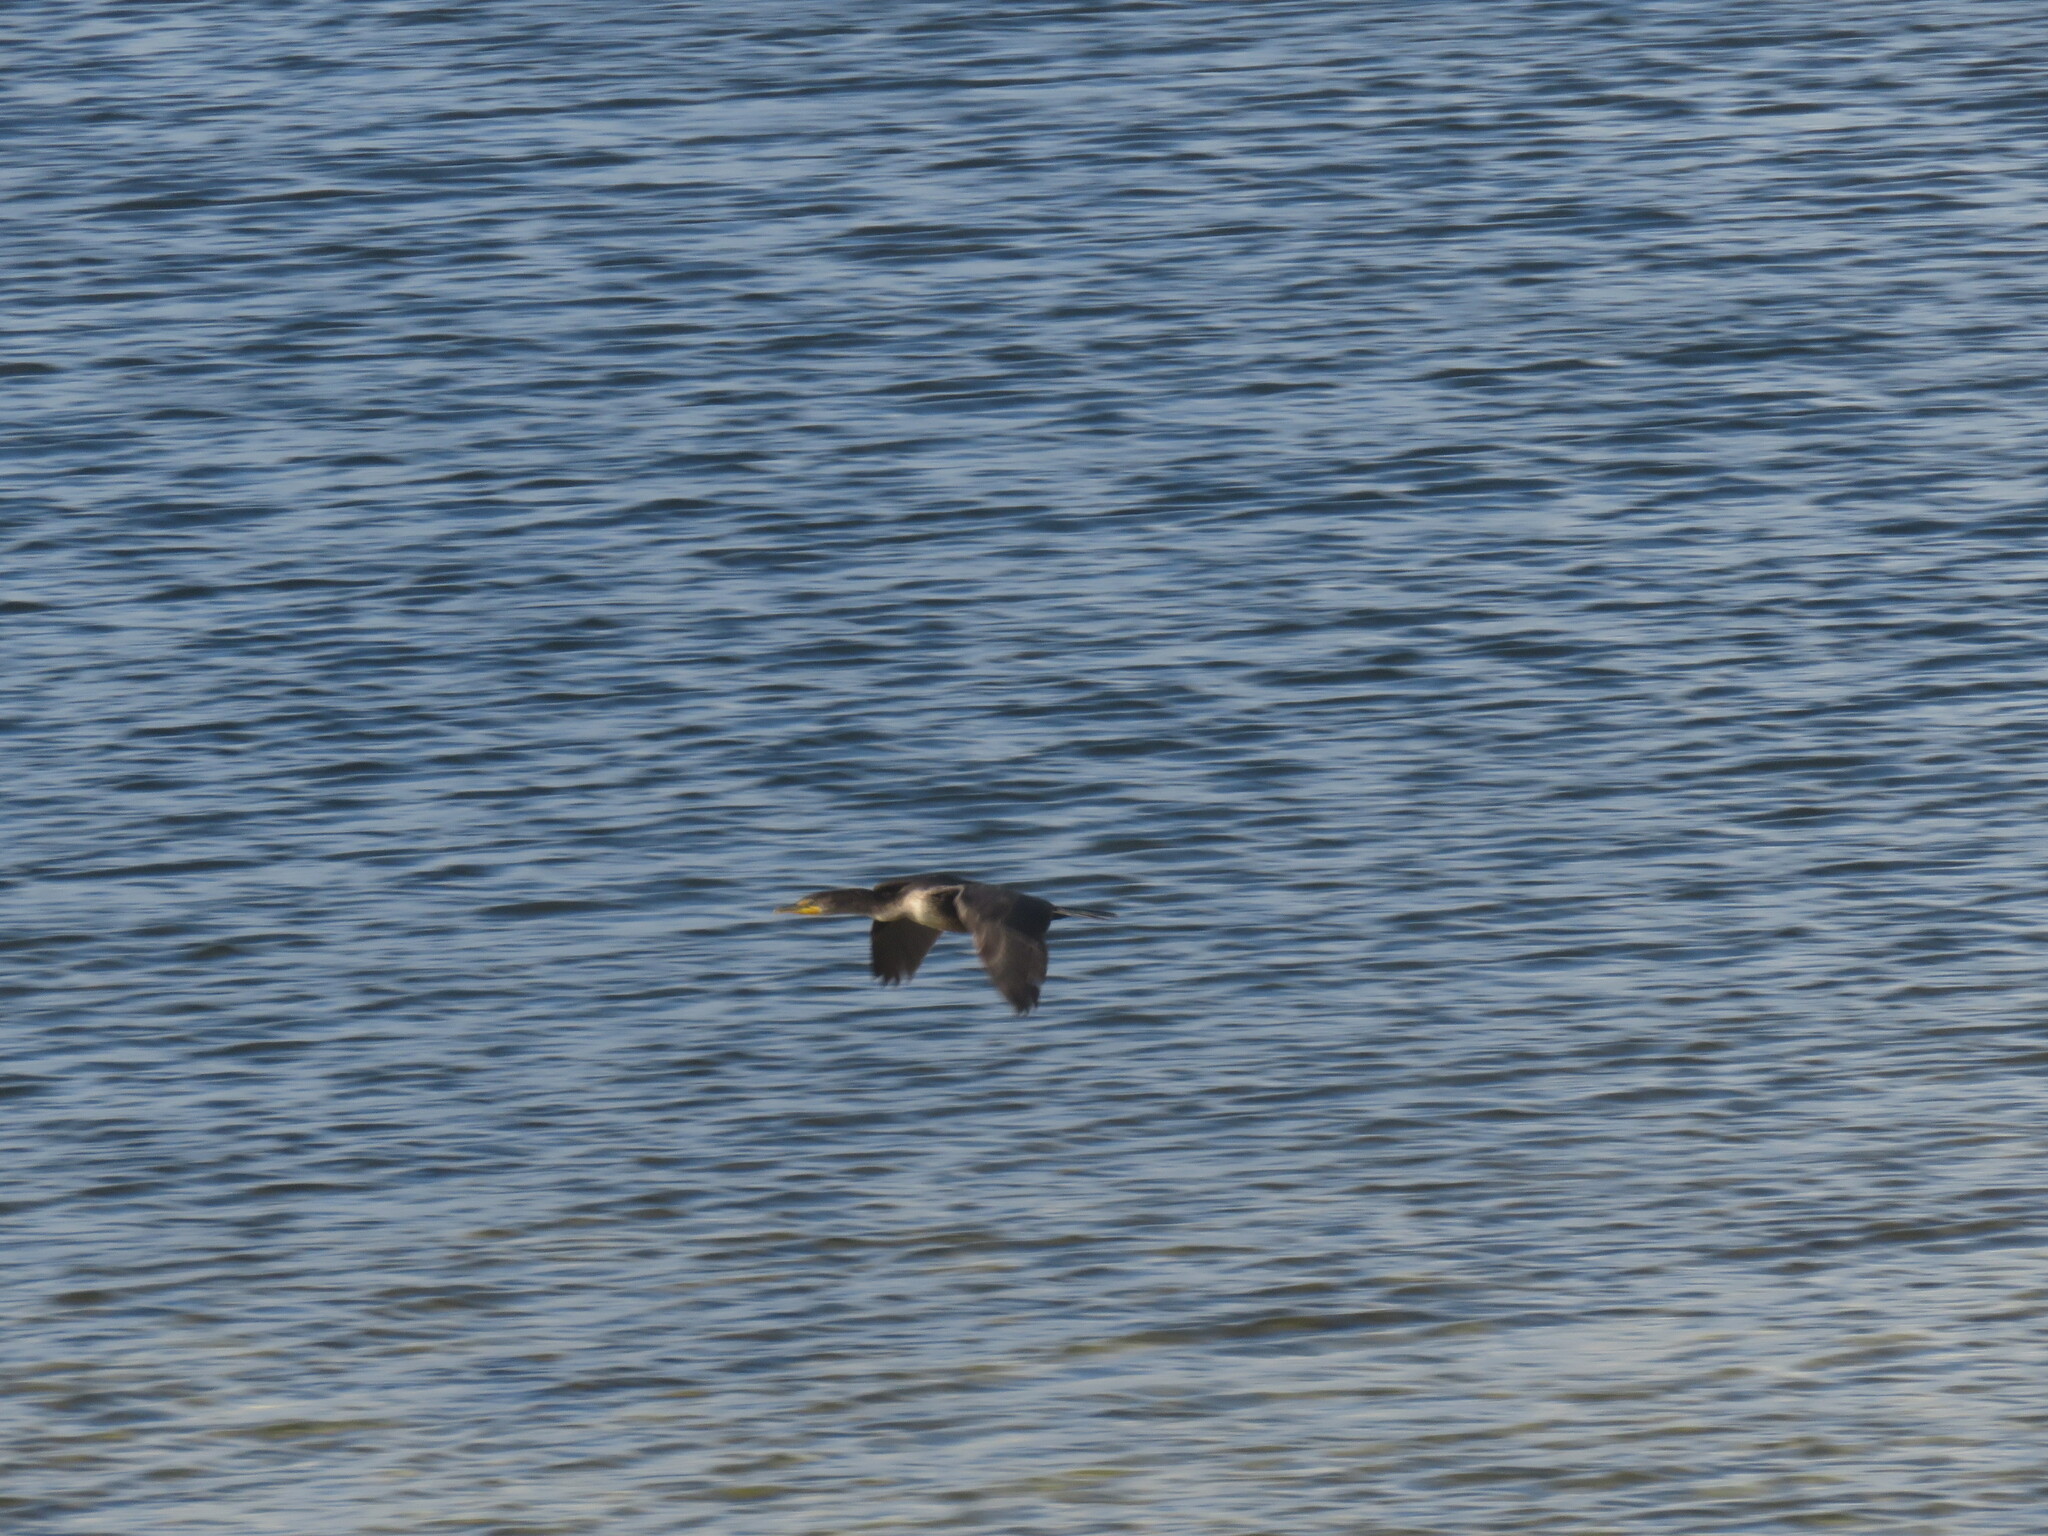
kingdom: Animalia
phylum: Chordata
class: Aves
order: Suliformes
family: Phalacrocoracidae
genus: Phalacrocorax
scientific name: Phalacrocorax auritus
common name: Double-crested cormorant
